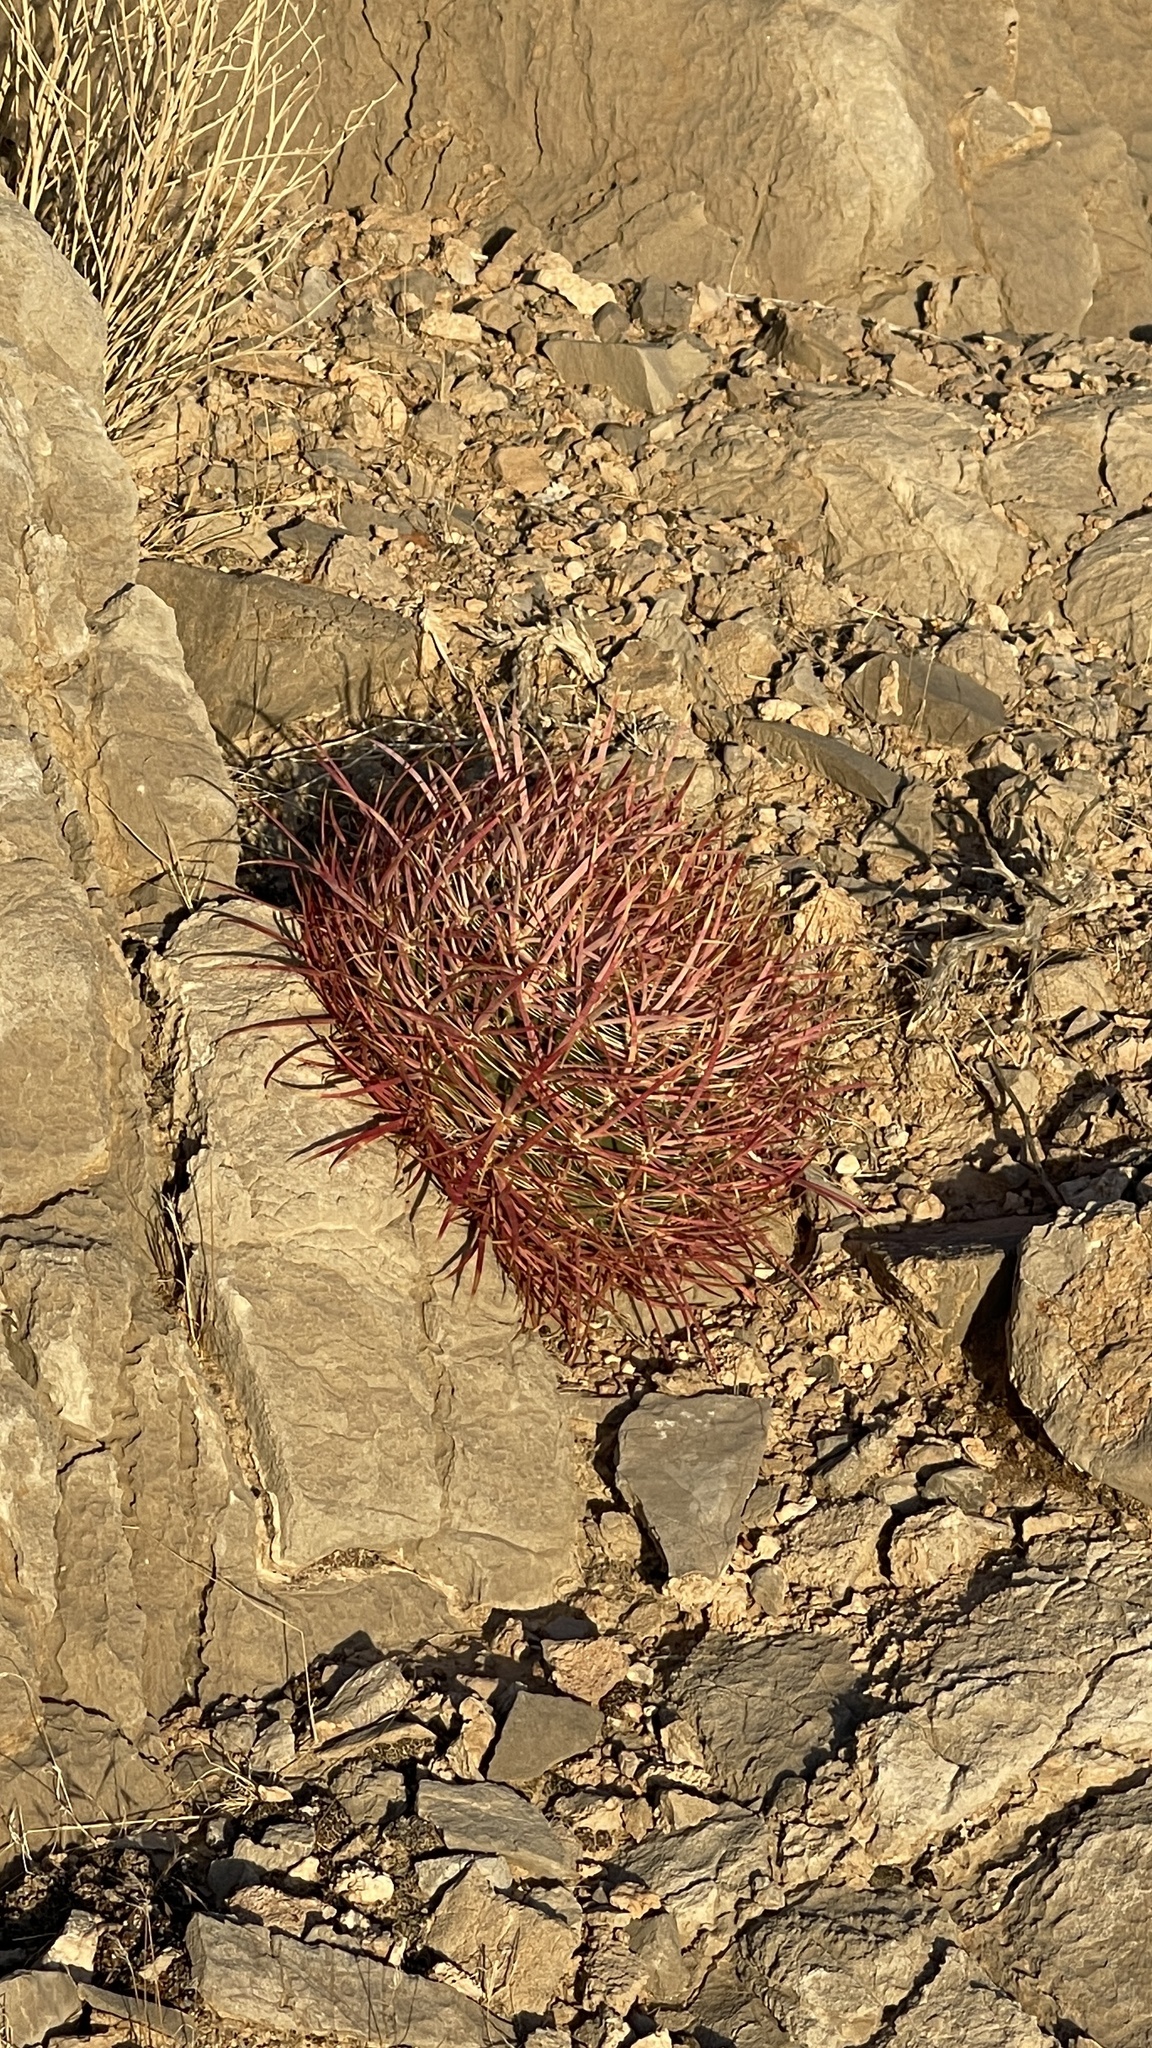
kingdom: Plantae
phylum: Tracheophyta
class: Magnoliopsida
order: Caryophyllales
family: Cactaceae
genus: Ferocactus
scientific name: Ferocactus cylindraceus
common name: California barrel cactus
